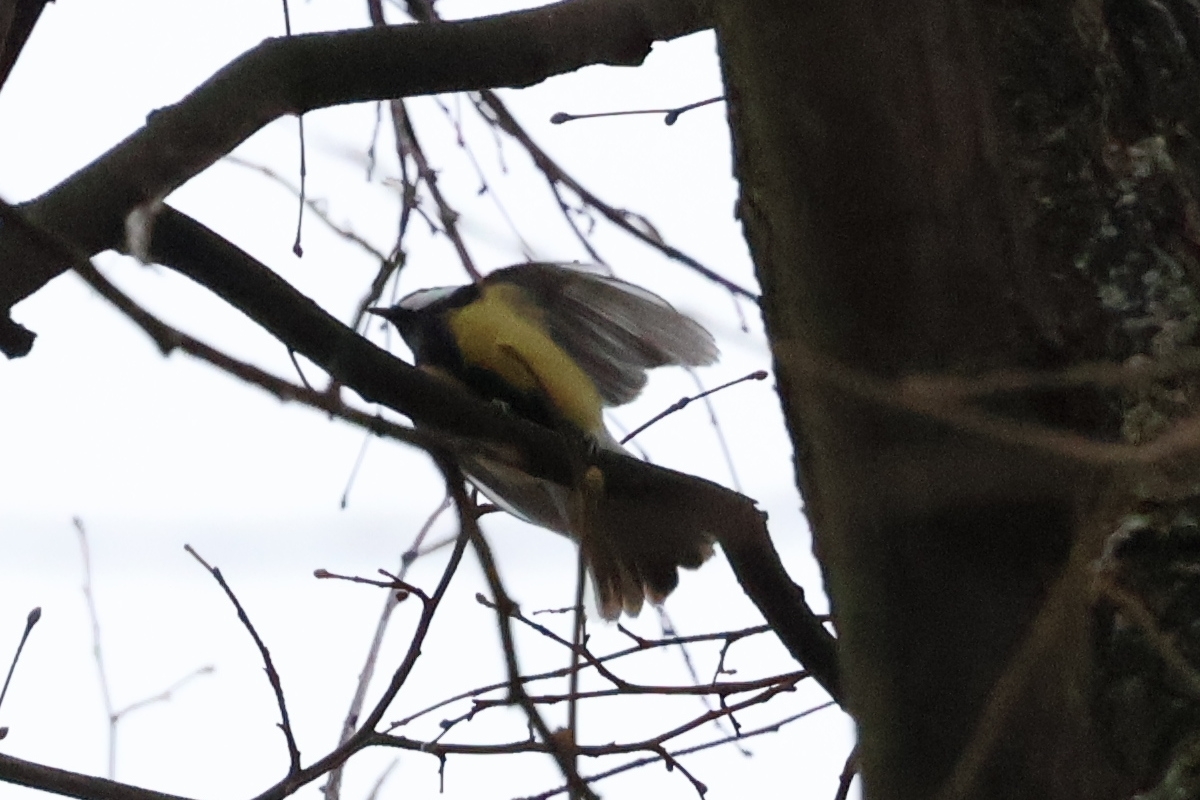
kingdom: Animalia
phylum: Chordata
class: Aves
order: Passeriformes
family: Paridae
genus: Parus
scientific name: Parus major
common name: Great tit
